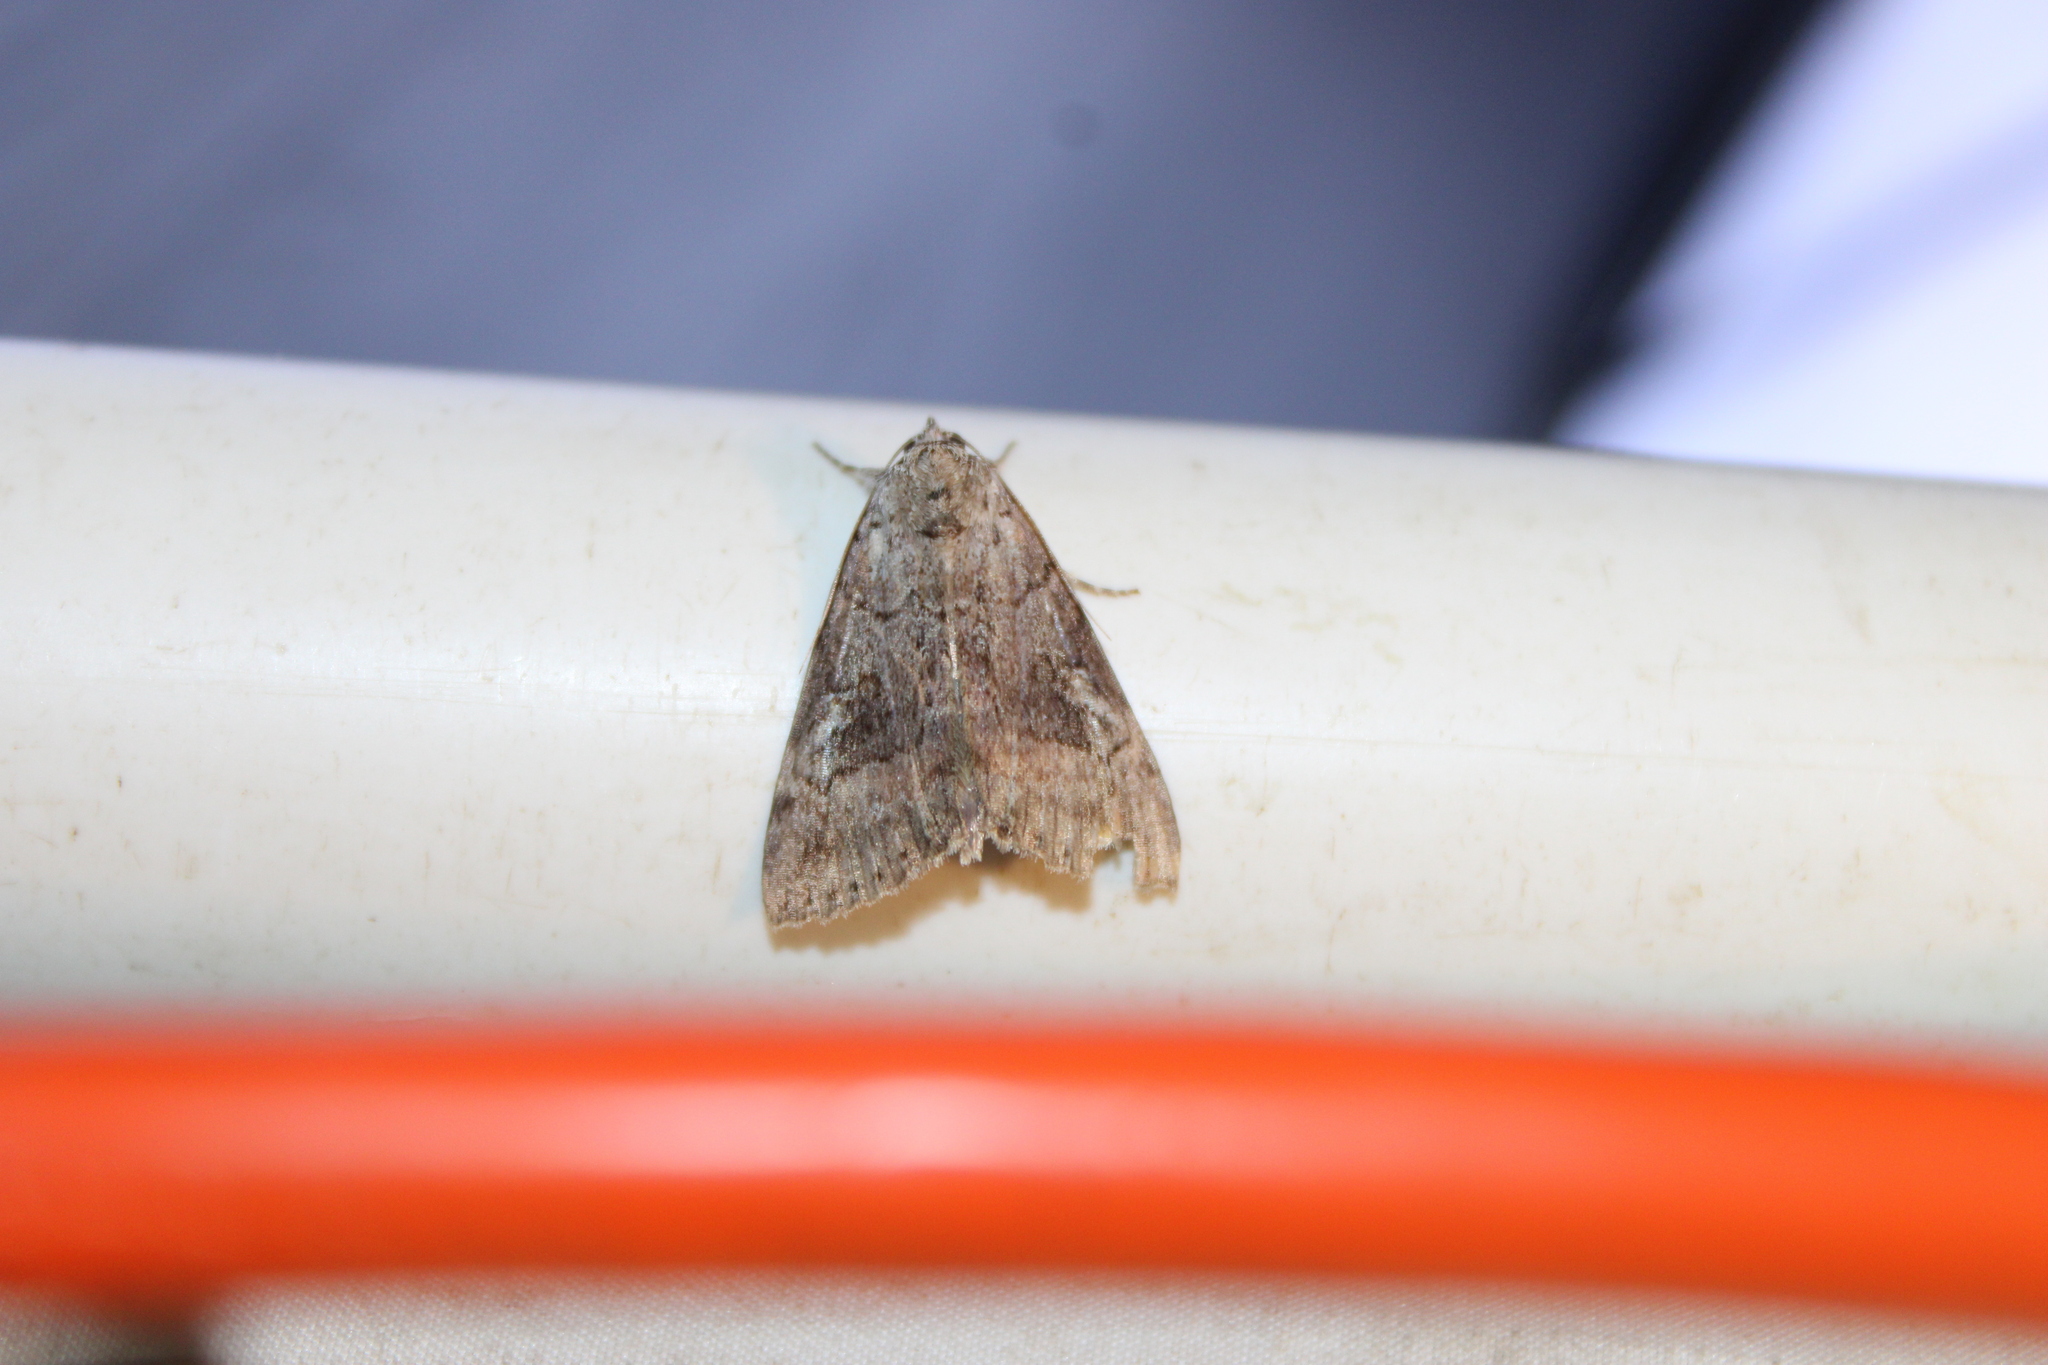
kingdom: Animalia
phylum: Arthropoda
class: Insecta
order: Lepidoptera
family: Erebidae
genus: Catocala
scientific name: Catocala similis
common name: Similar underwing
